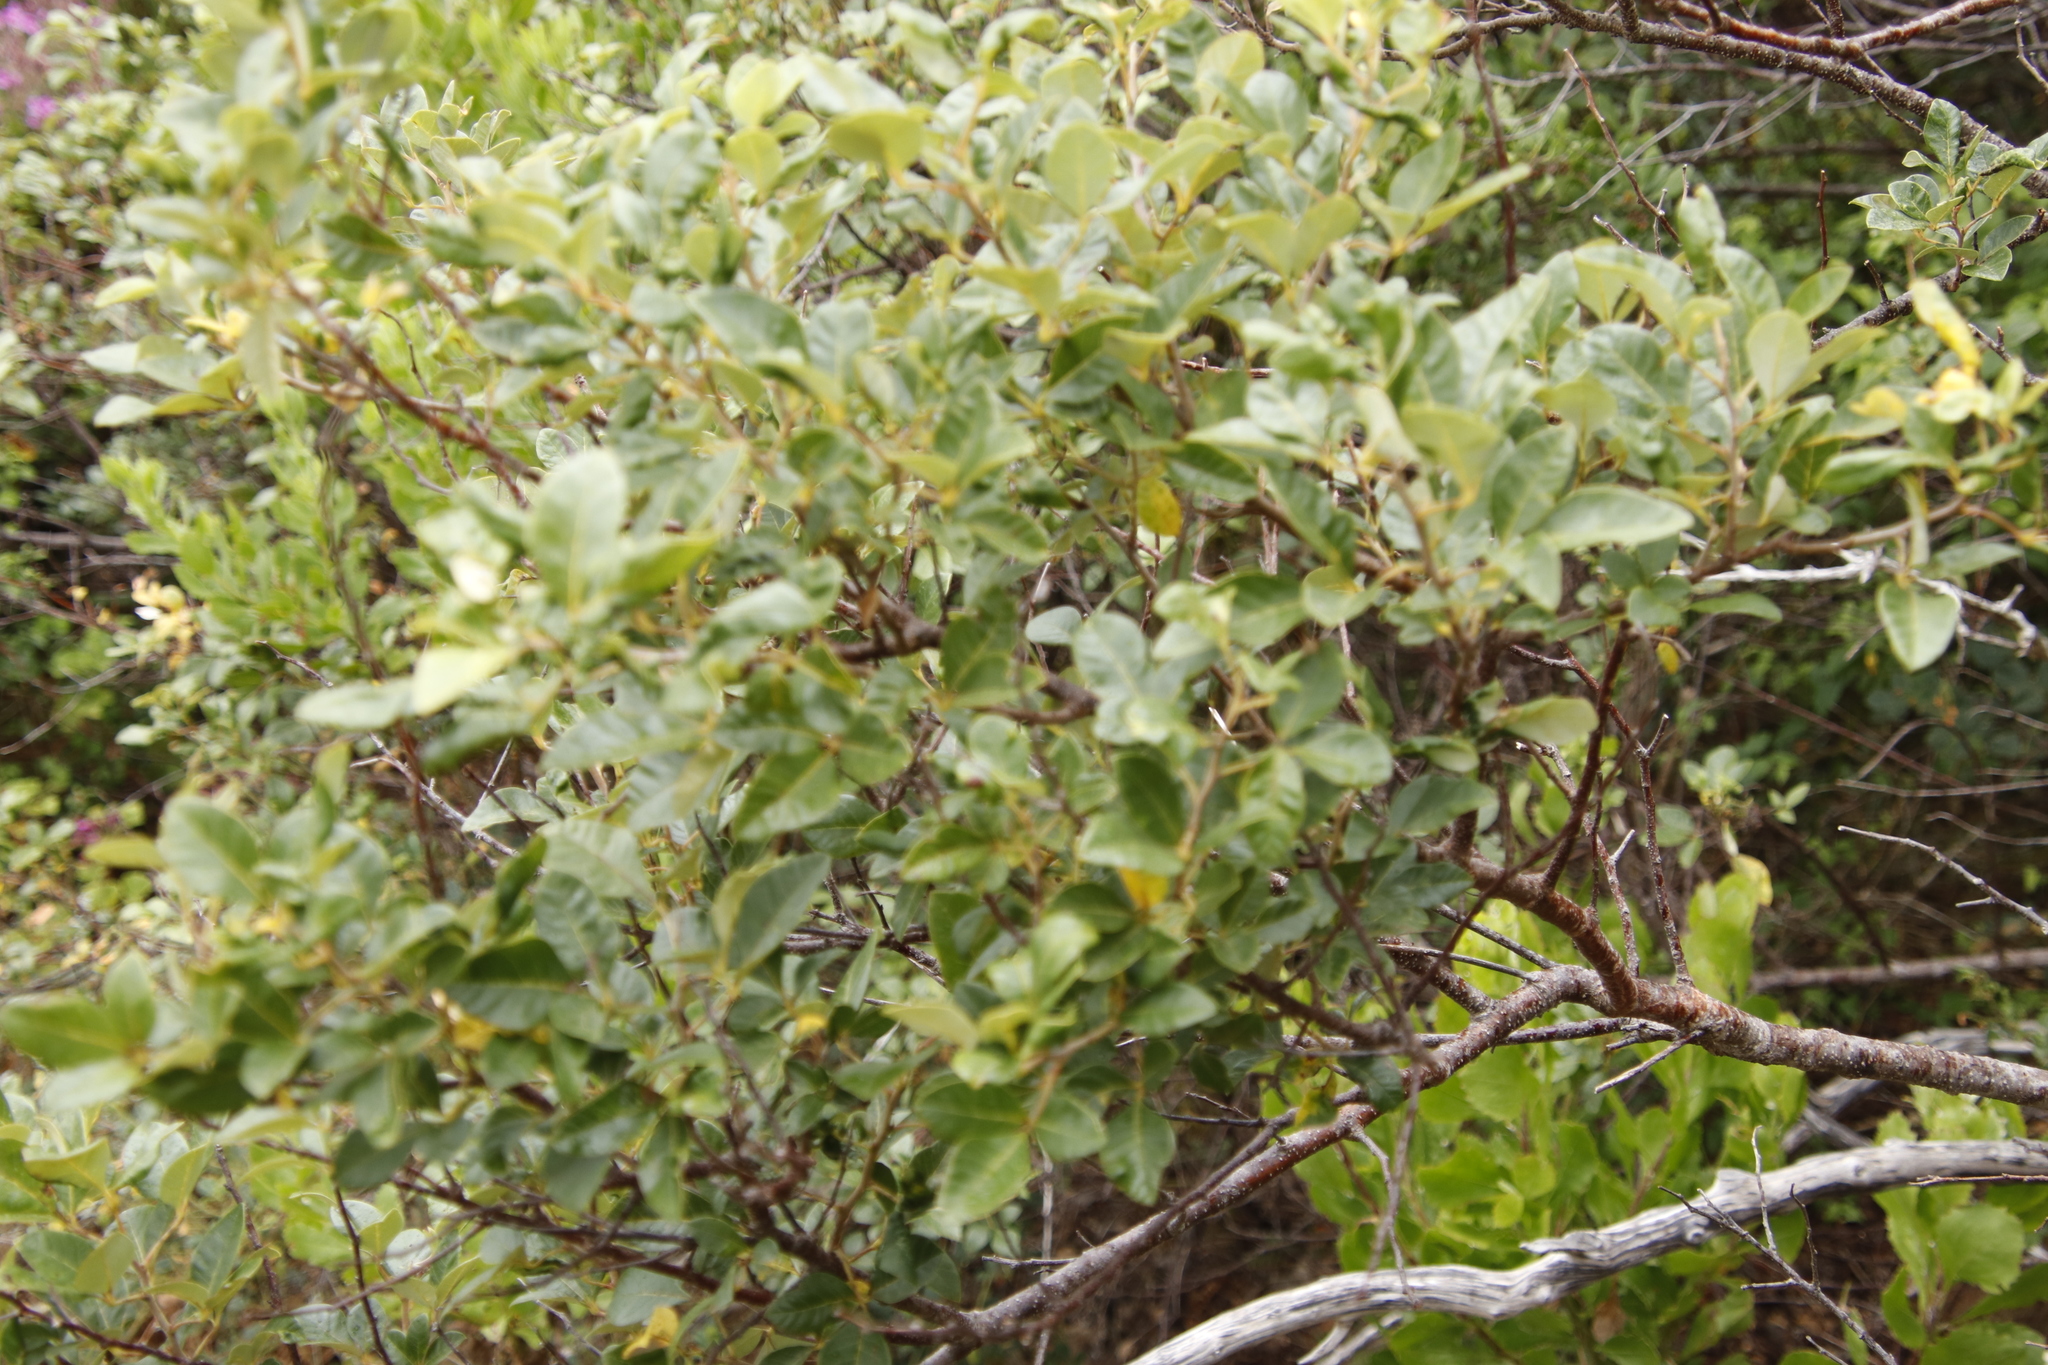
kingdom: Plantae
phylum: Tracheophyta
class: Magnoliopsida
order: Sapindales
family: Anacardiaceae
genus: Searsia
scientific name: Searsia tomentosa
